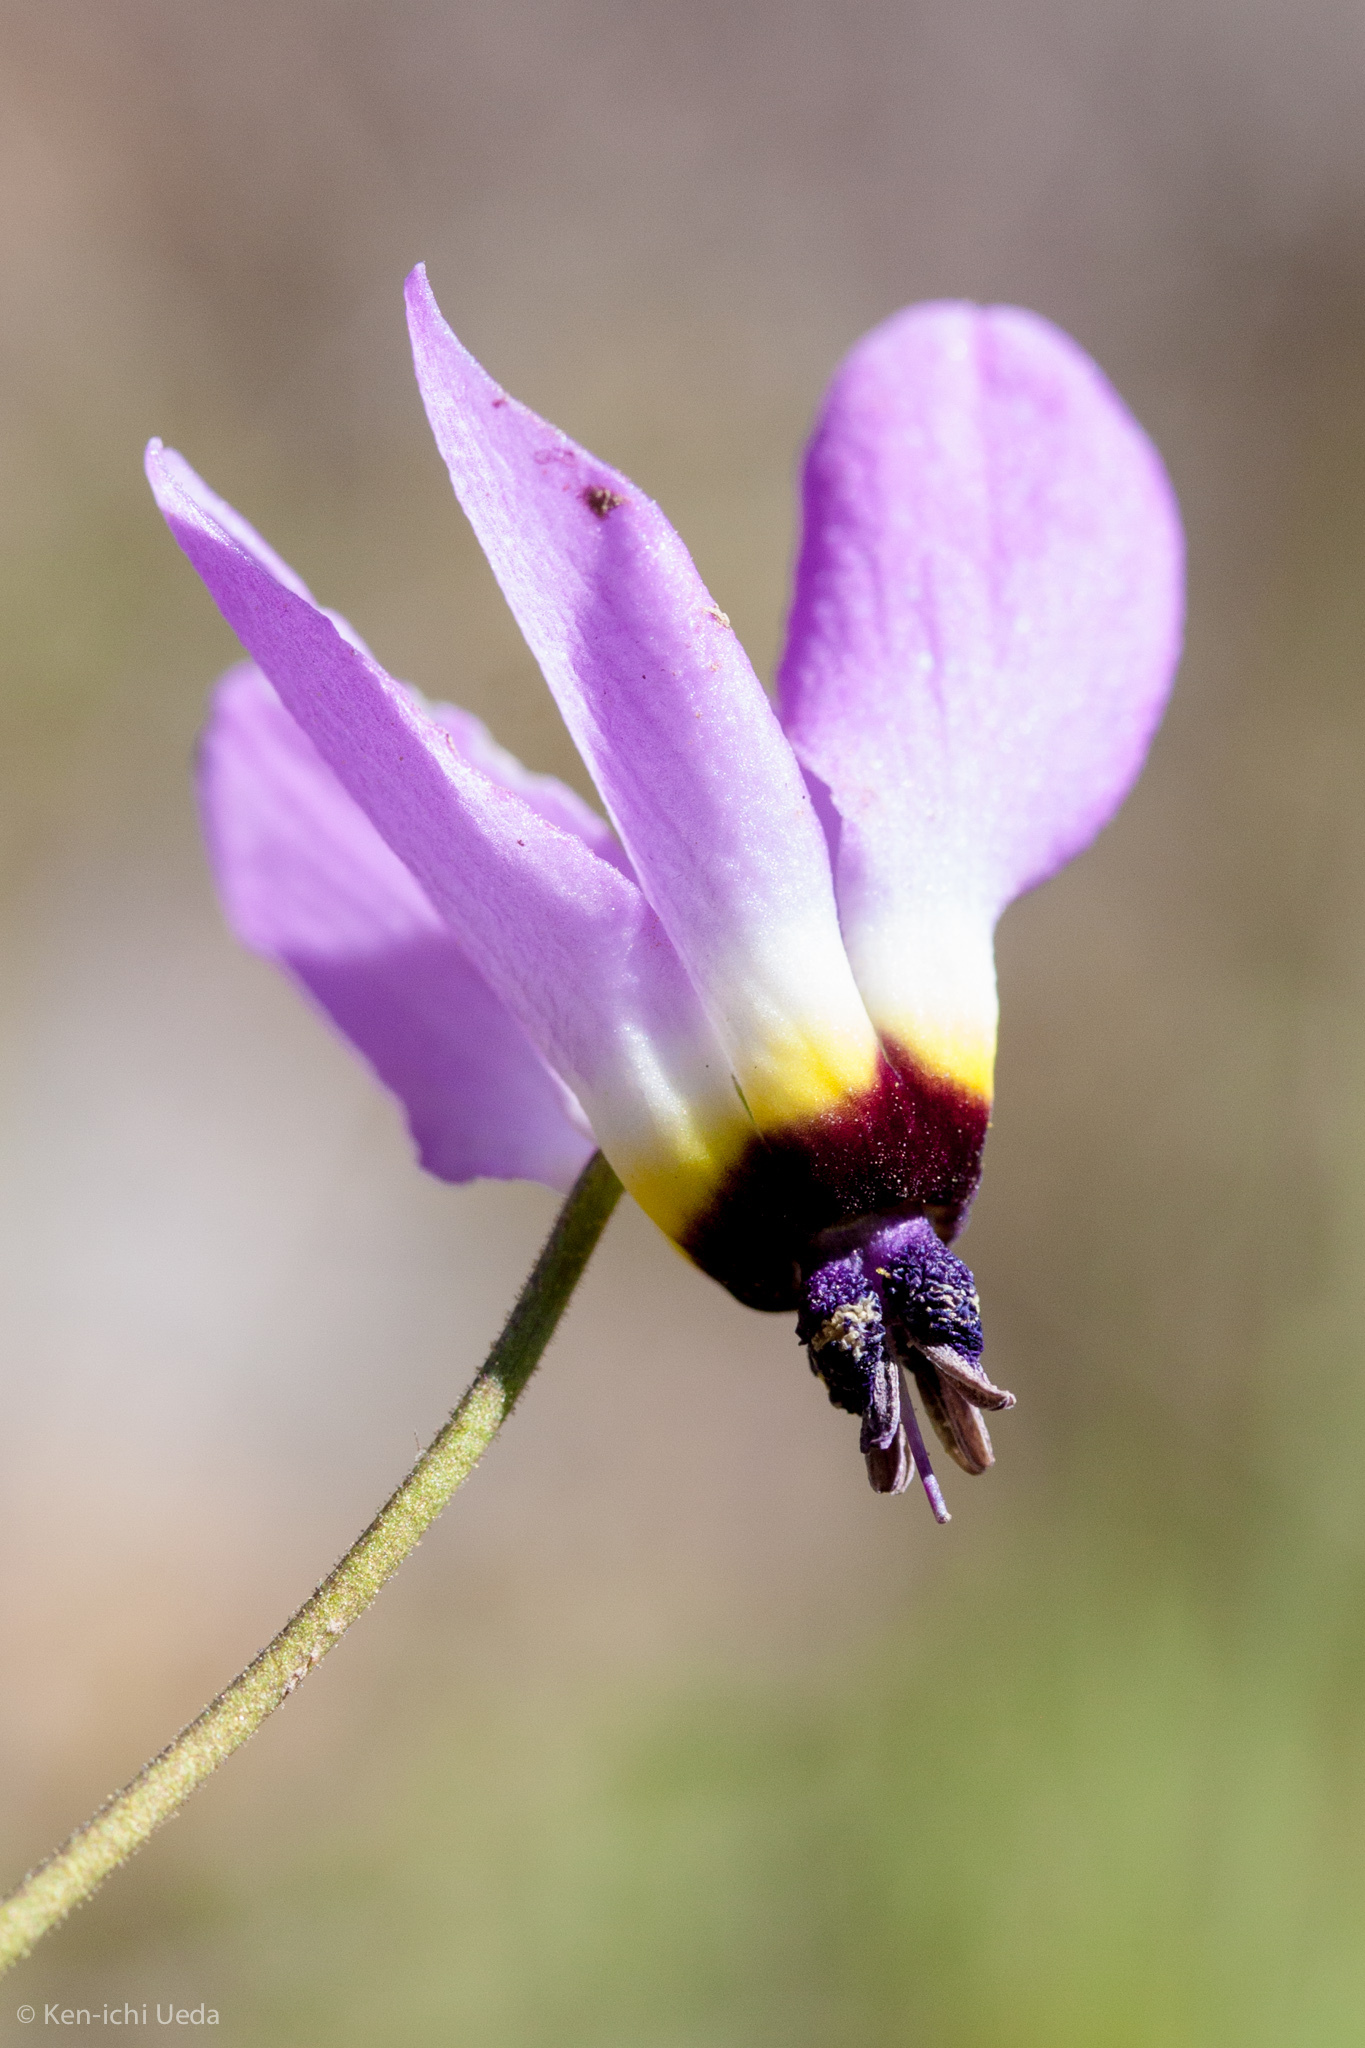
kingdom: Plantae
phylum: Tracheophyta
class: Magnoliopsida
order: Ericales
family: Primulaceae
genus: Dodecatheon
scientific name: Dodecatheon clevelandii
